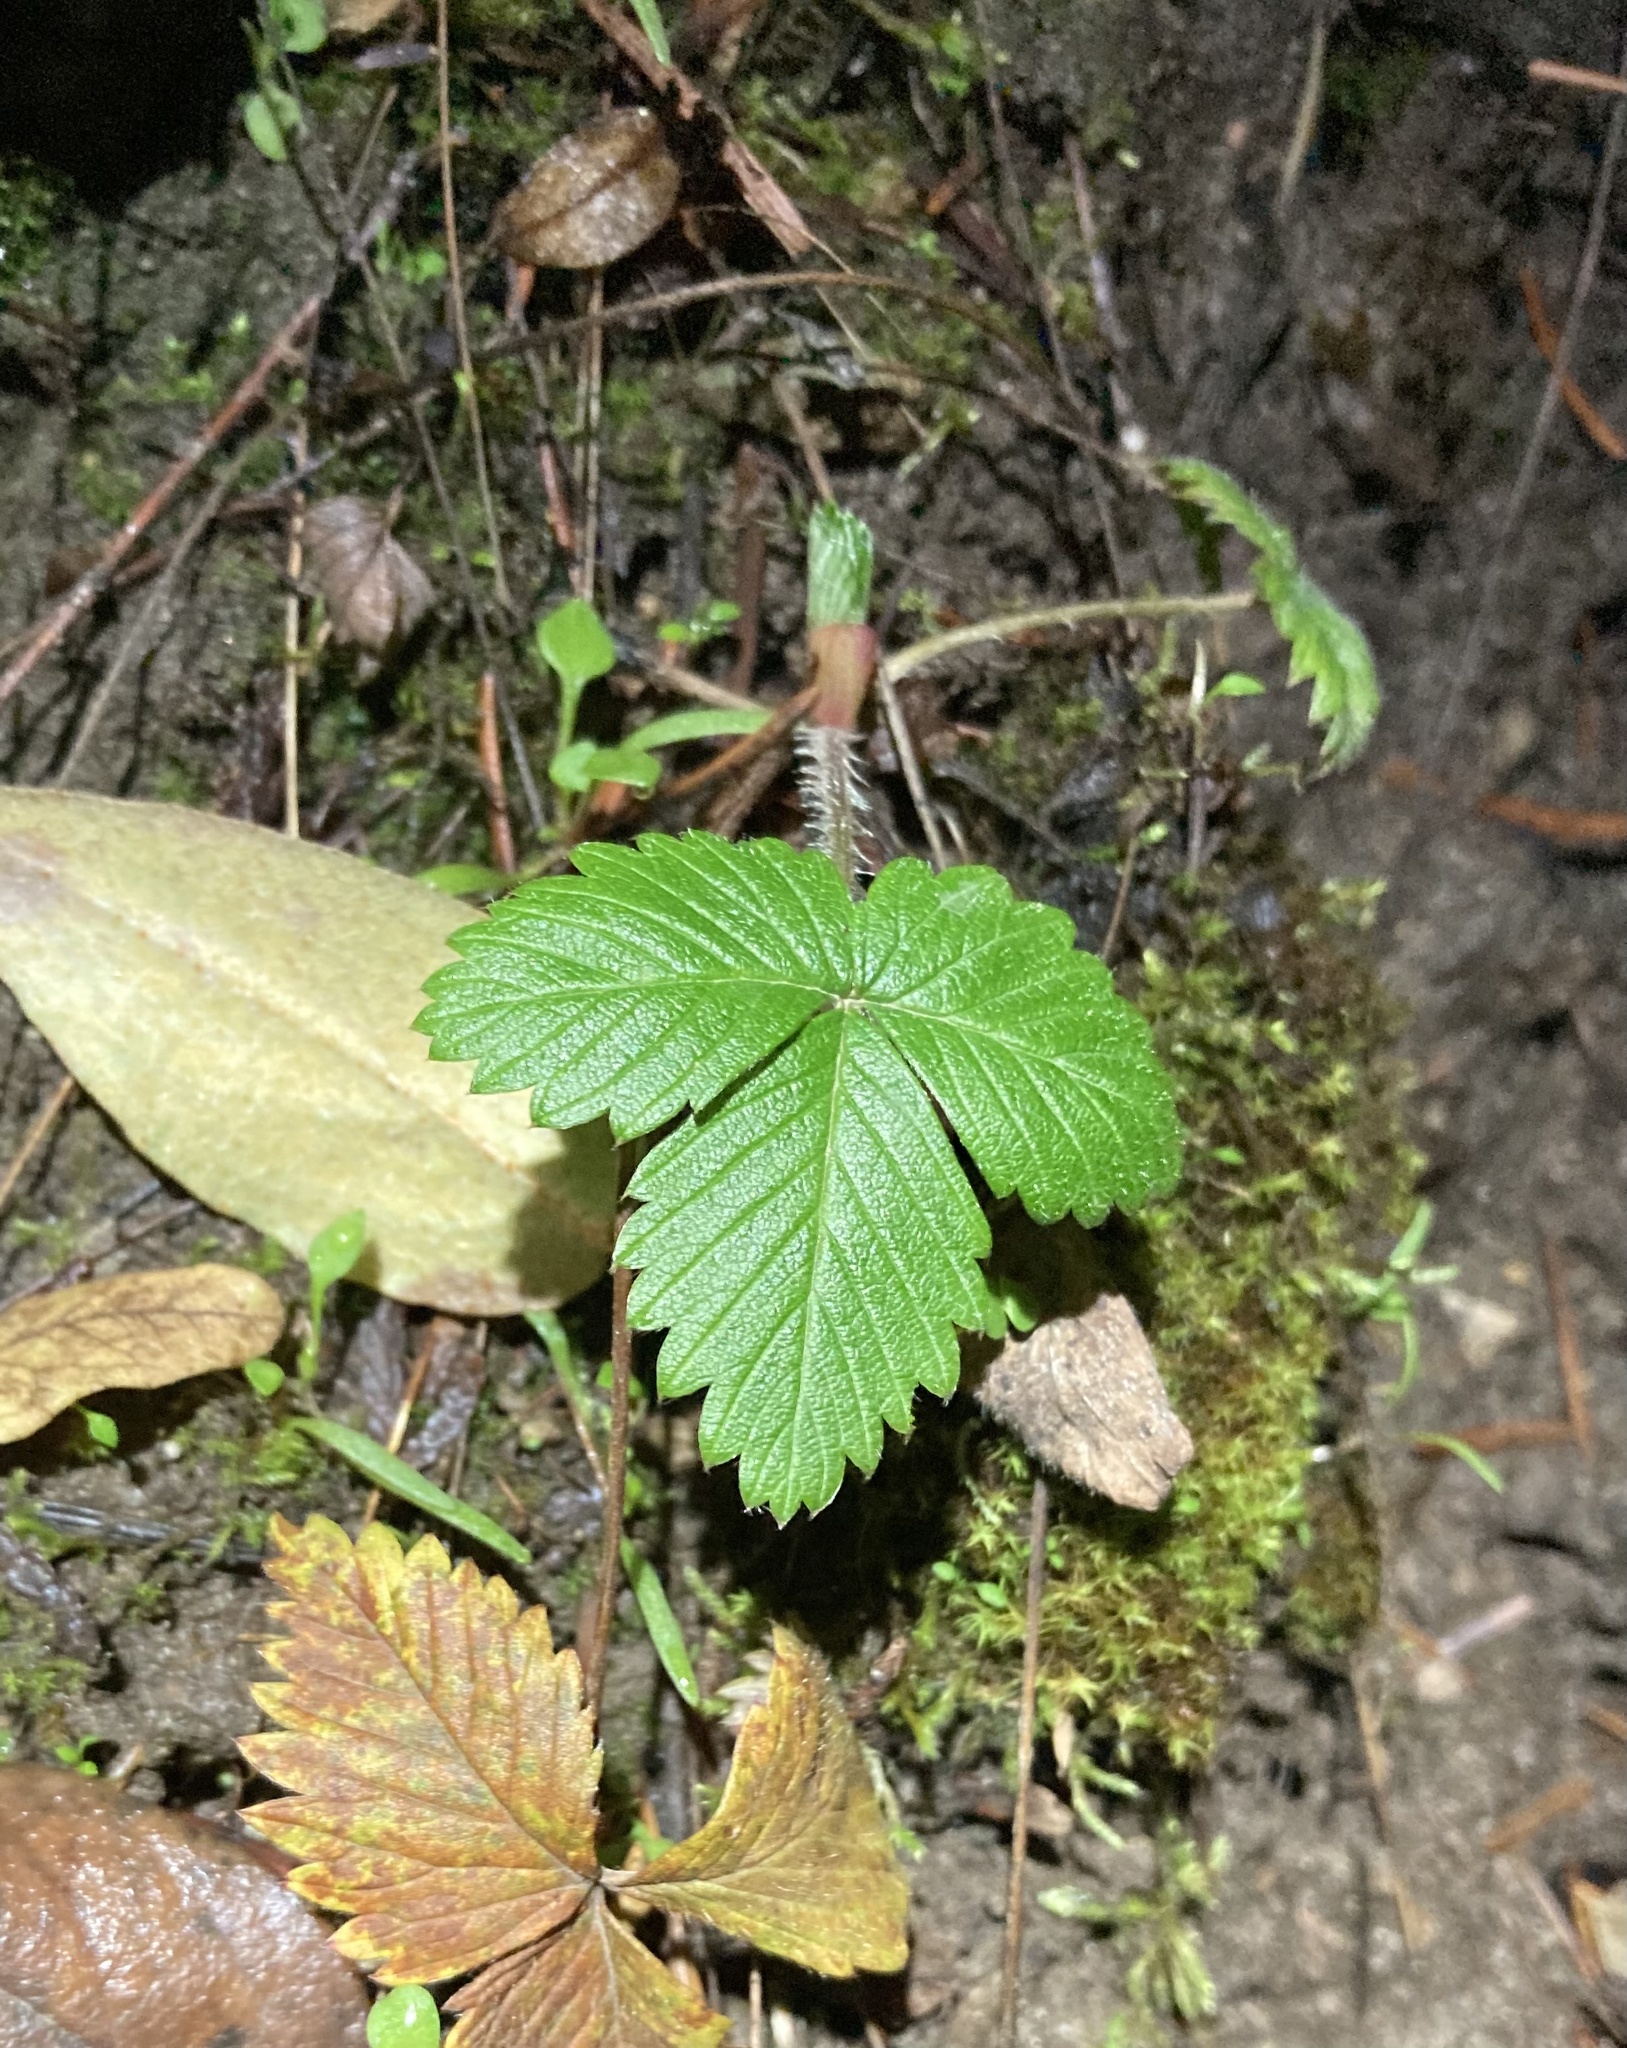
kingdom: Plantae
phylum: Tracheophyta
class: Magnoliopsida
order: Rosales
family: Rosaceae
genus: Fragaria
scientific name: Fragaria vesca
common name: Wild strawberry
